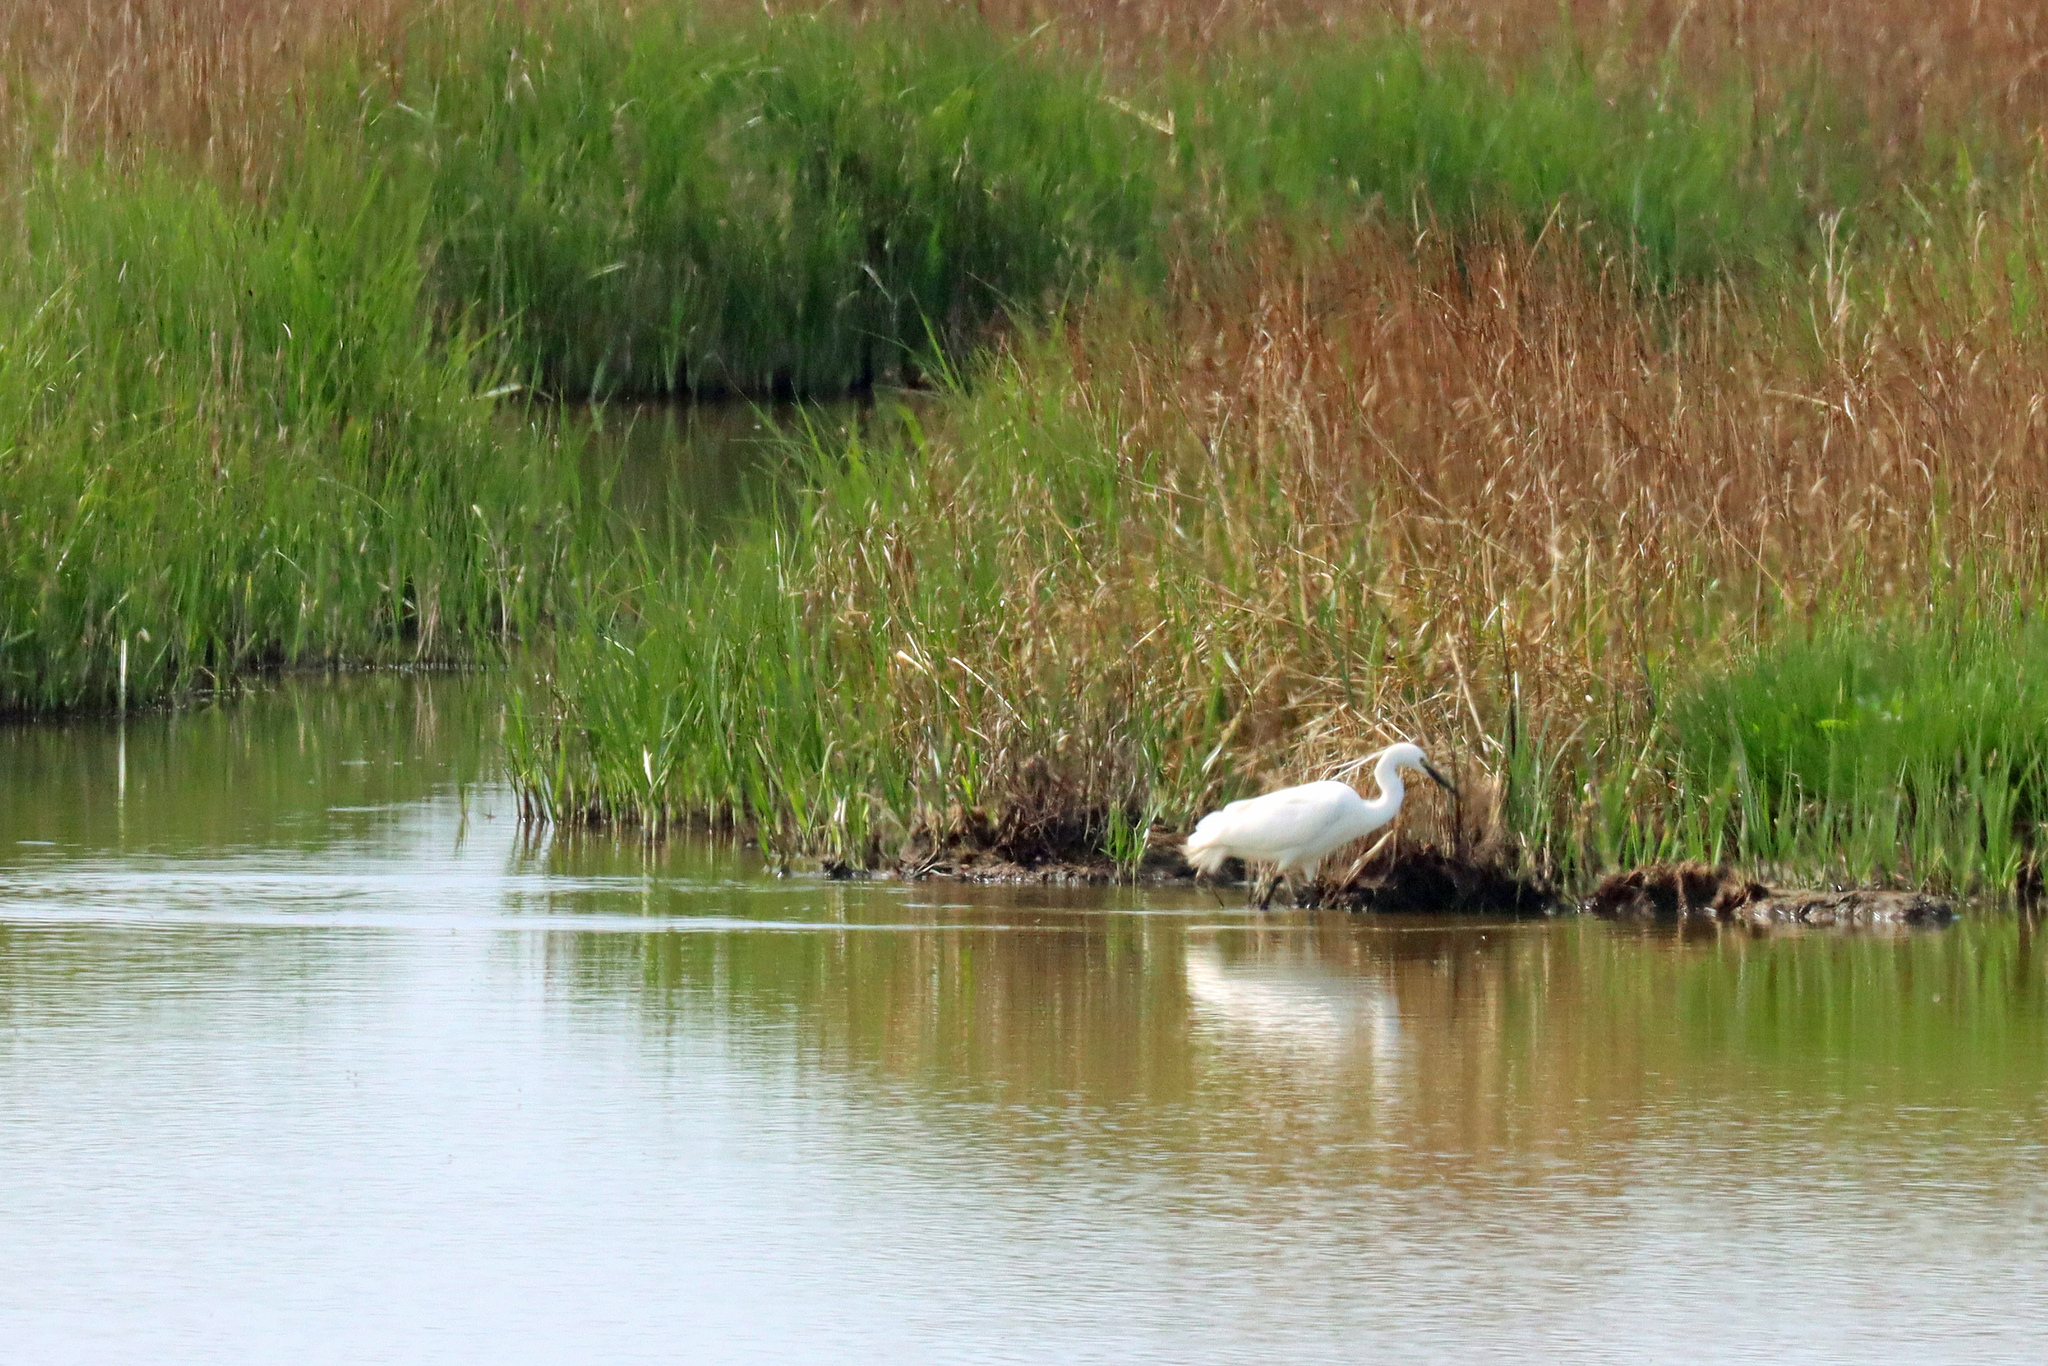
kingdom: Animalia
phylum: Chordata
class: Aves
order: Pelecaniformes
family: Ardeidae
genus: Egretta
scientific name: Egretta garzetta
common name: Little egret
